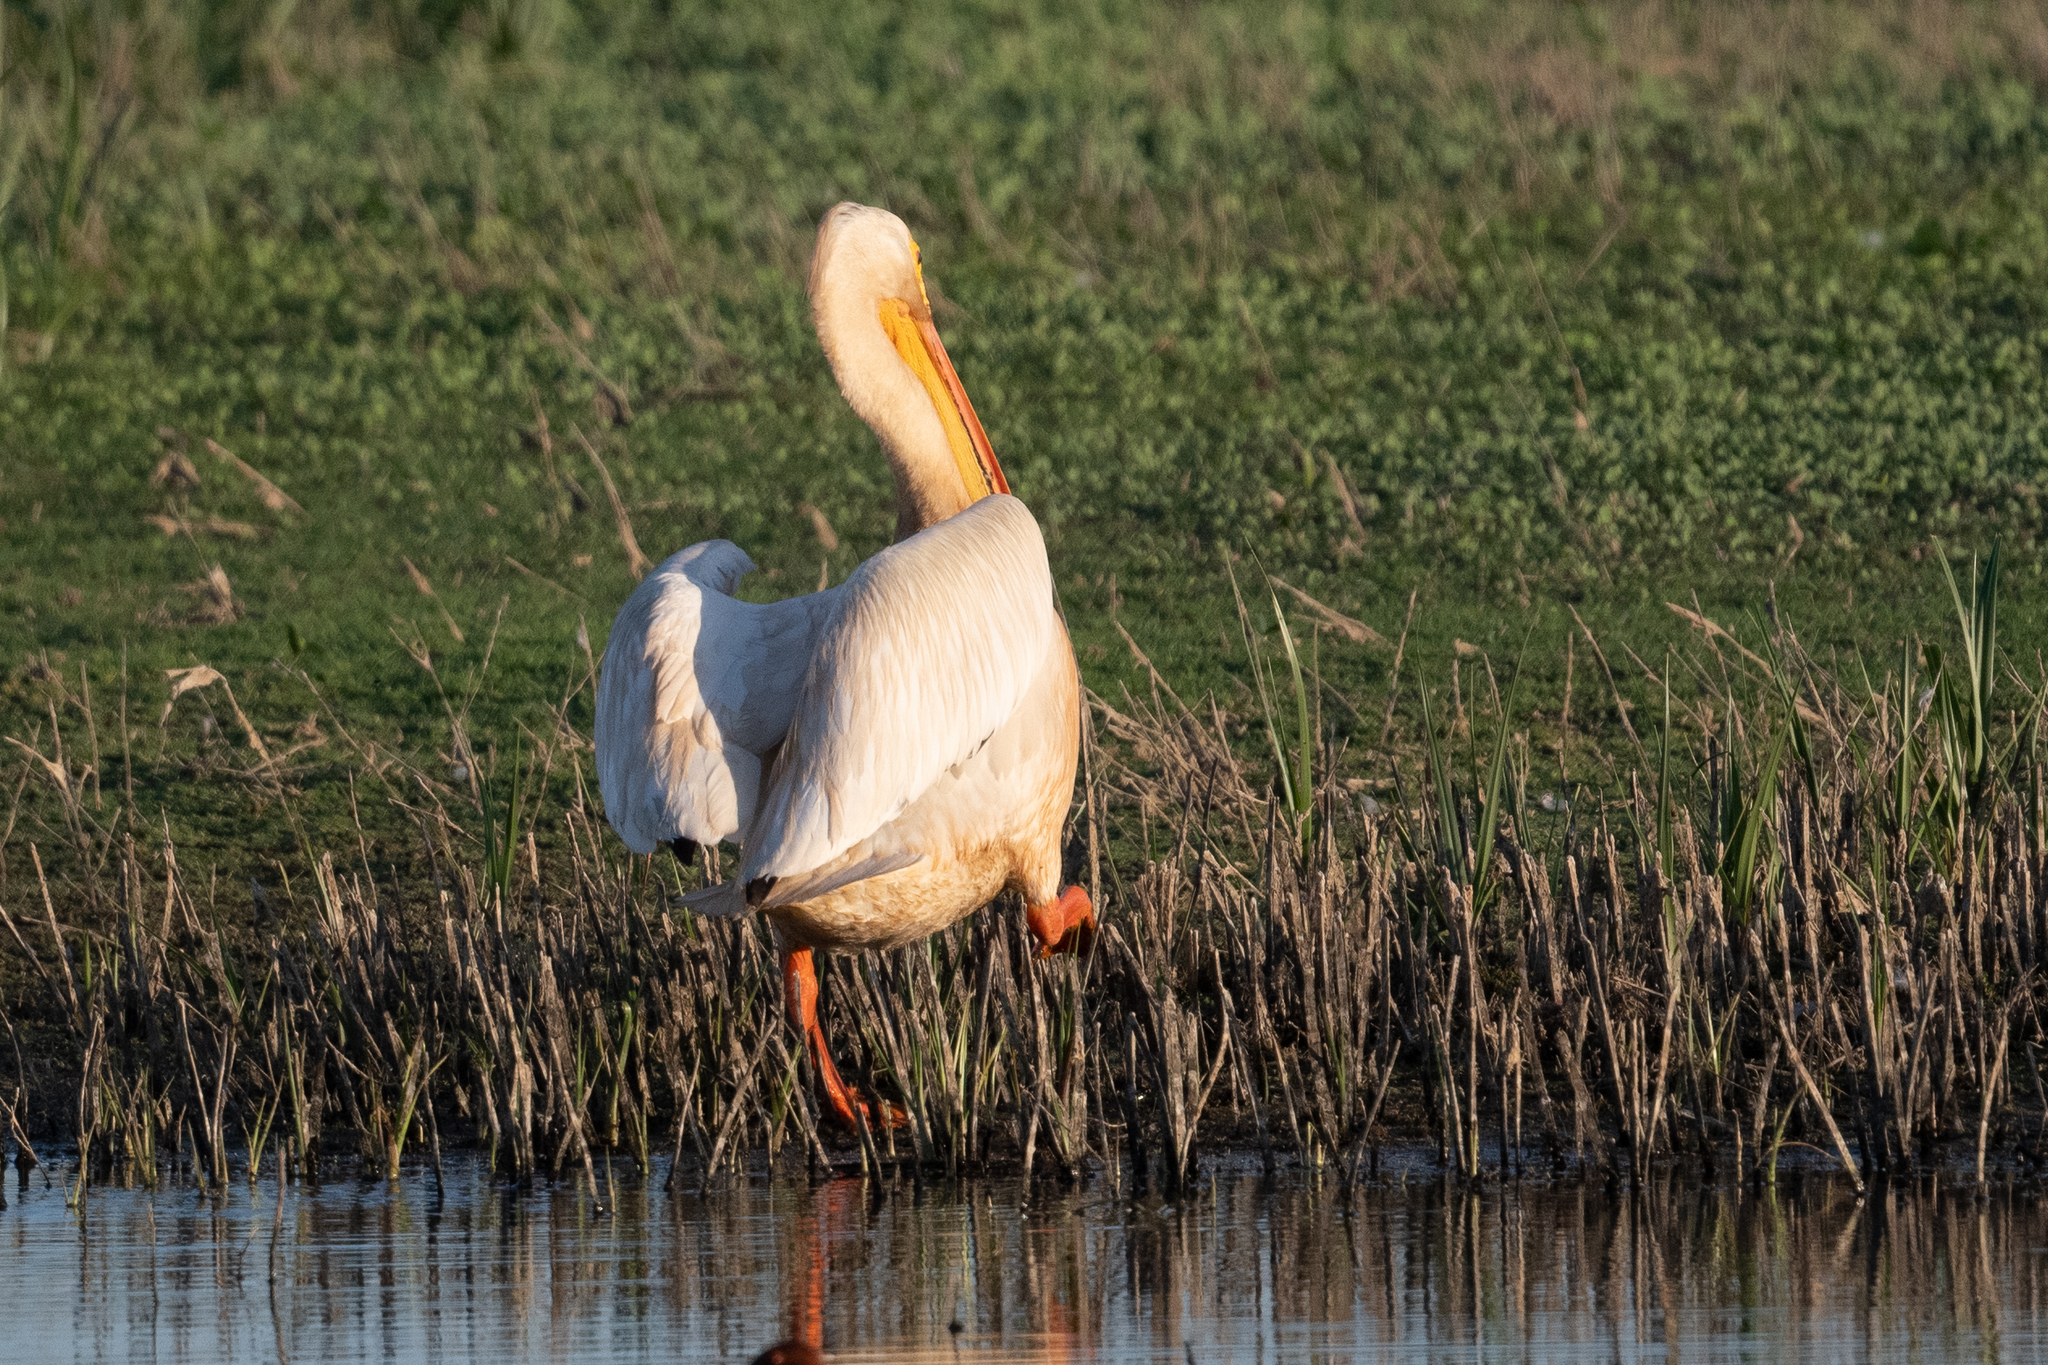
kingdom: Animalia
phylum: Chordata
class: Aves
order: Pelecaniformes
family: Pelecanidae
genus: Pelecanus
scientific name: Pelecanus erythrorhynchos
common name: American white pelican
